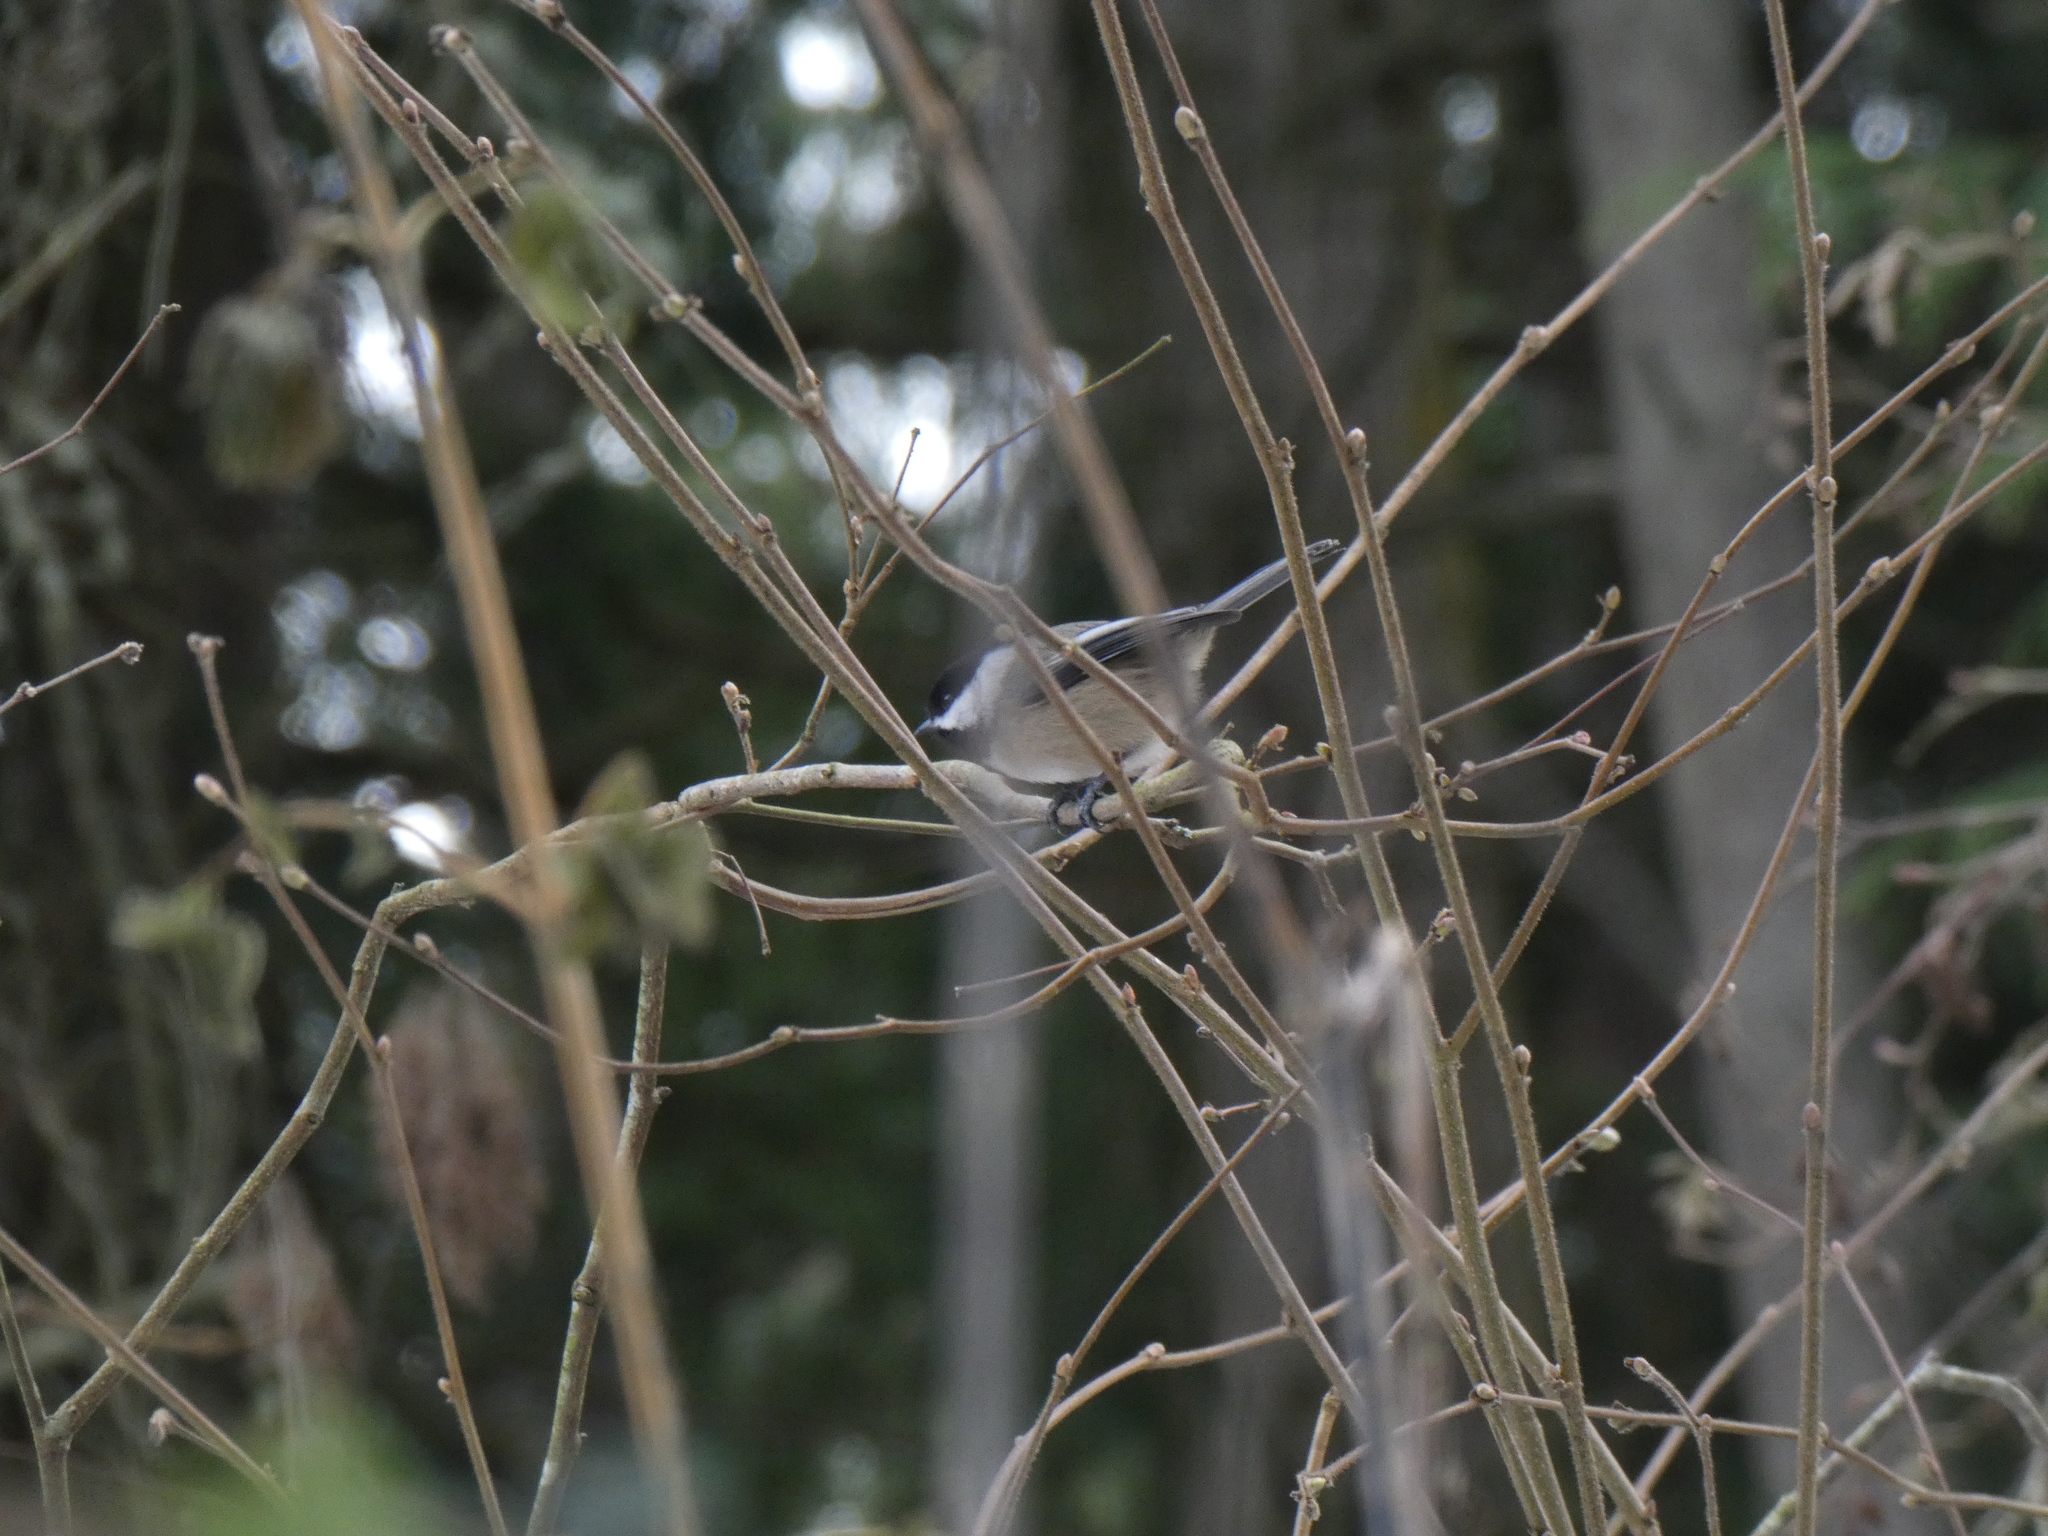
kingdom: Animalia
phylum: Chordata
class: Aves
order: Passeriformes
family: Paridae
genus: Poecile
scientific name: Poecile atricapillus
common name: Black-capped chickadee
